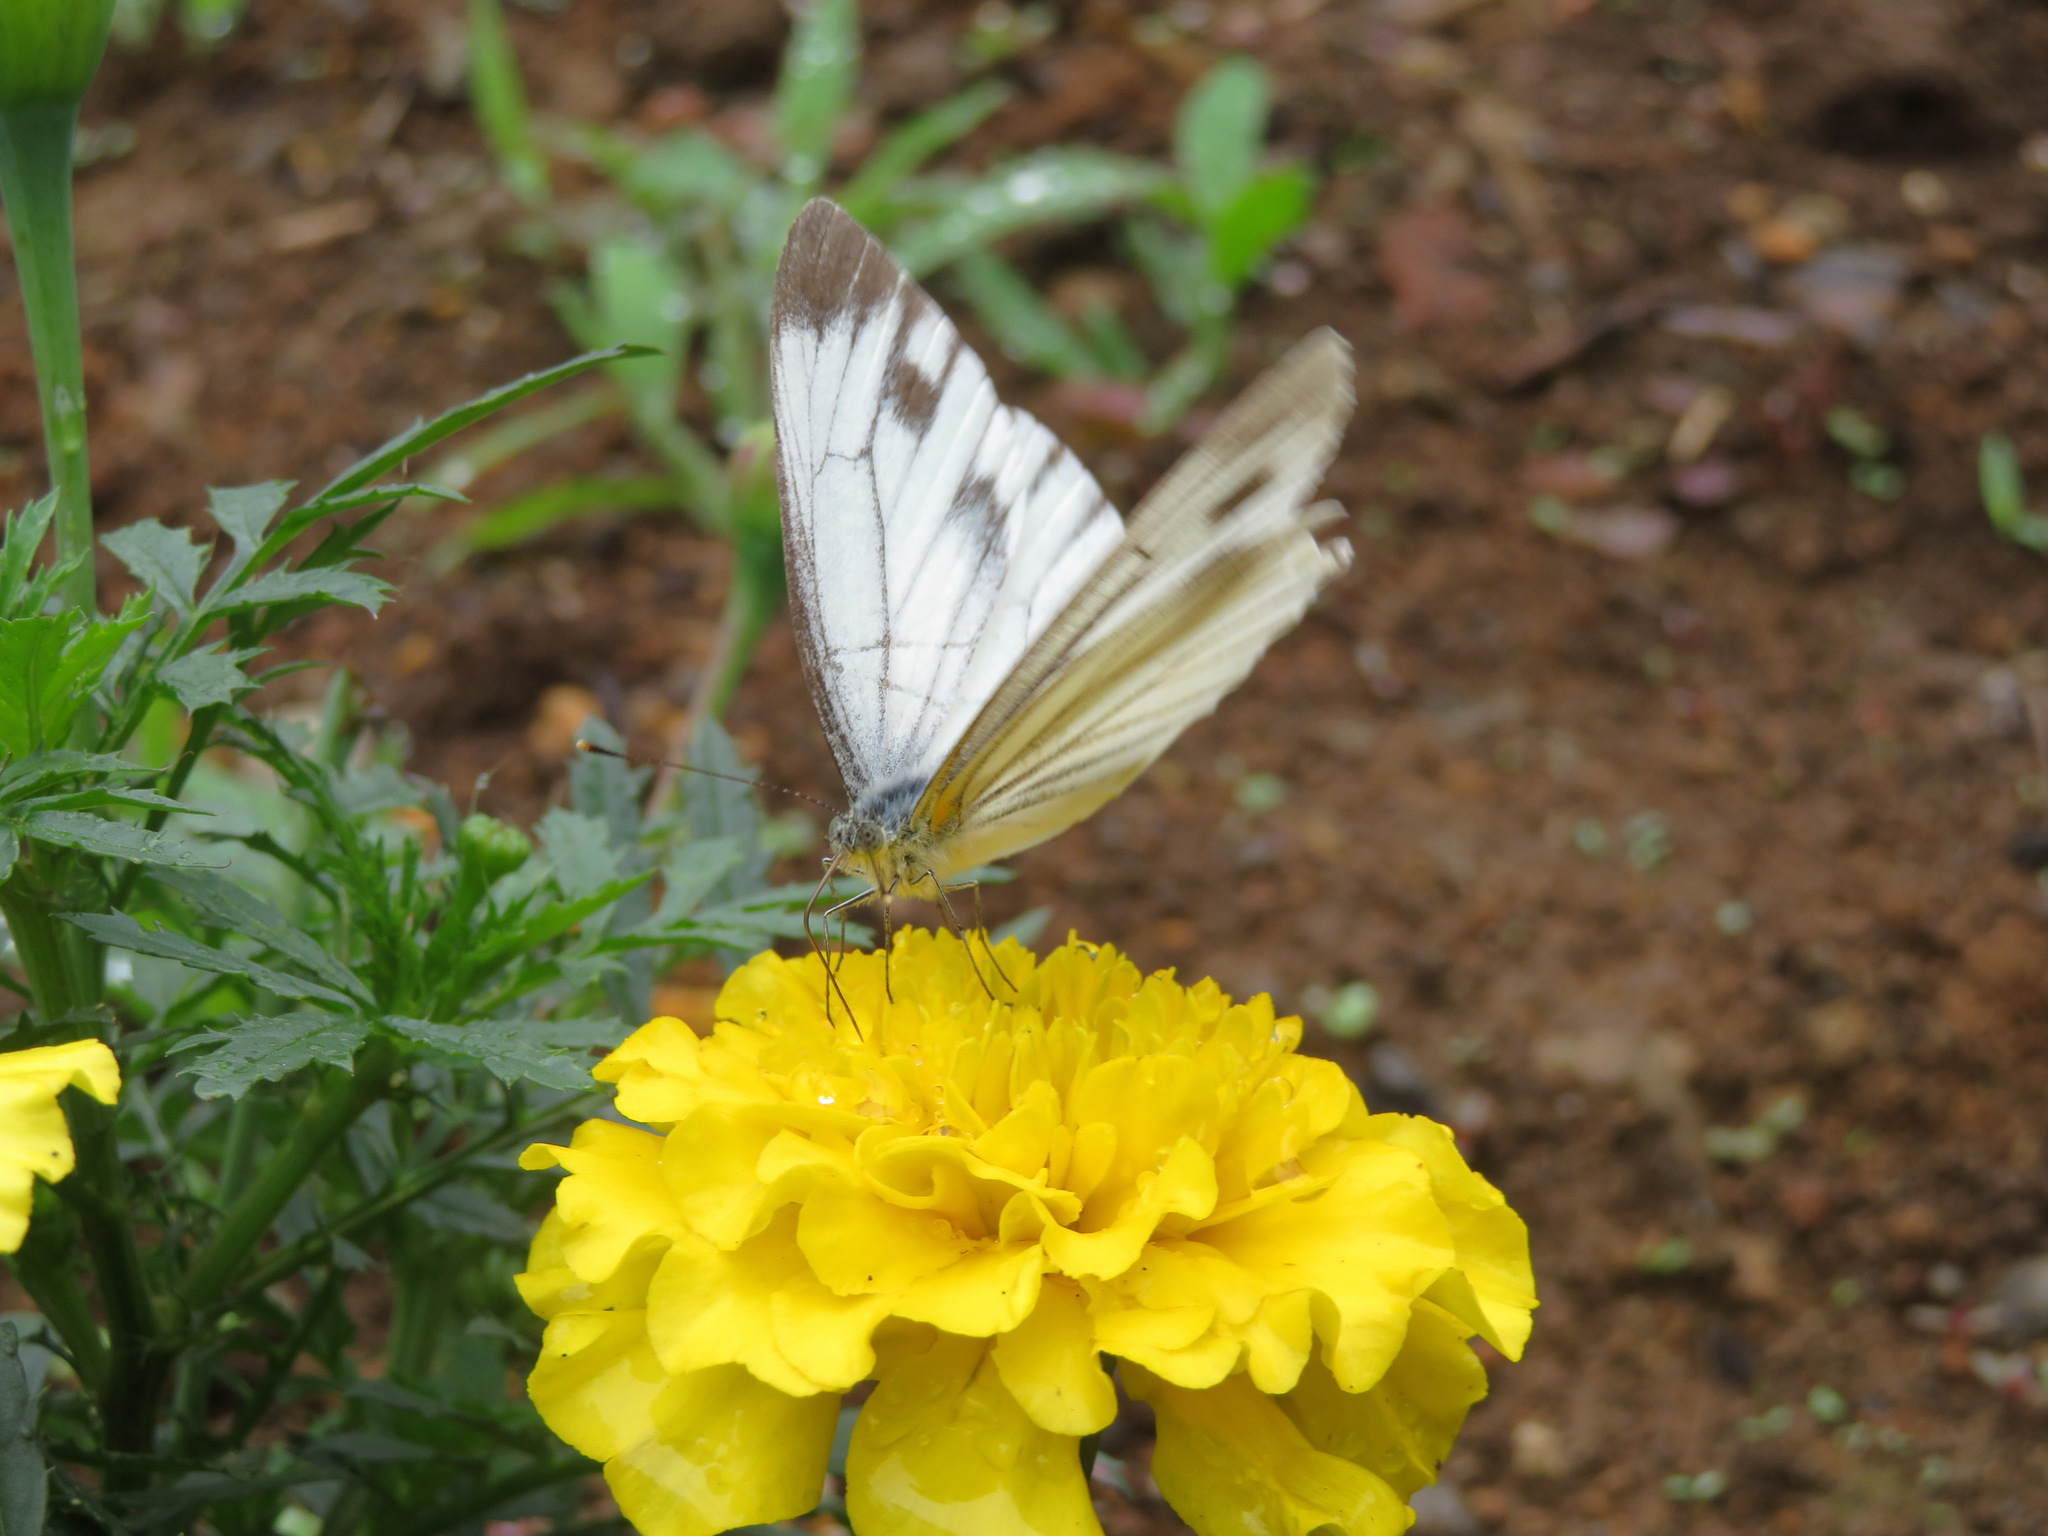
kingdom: Animalia
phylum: Arthropoda
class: Insecta
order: Lepidoptera
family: Pieridae
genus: Pieris
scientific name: Pieris melete
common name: Asian green-veined white
